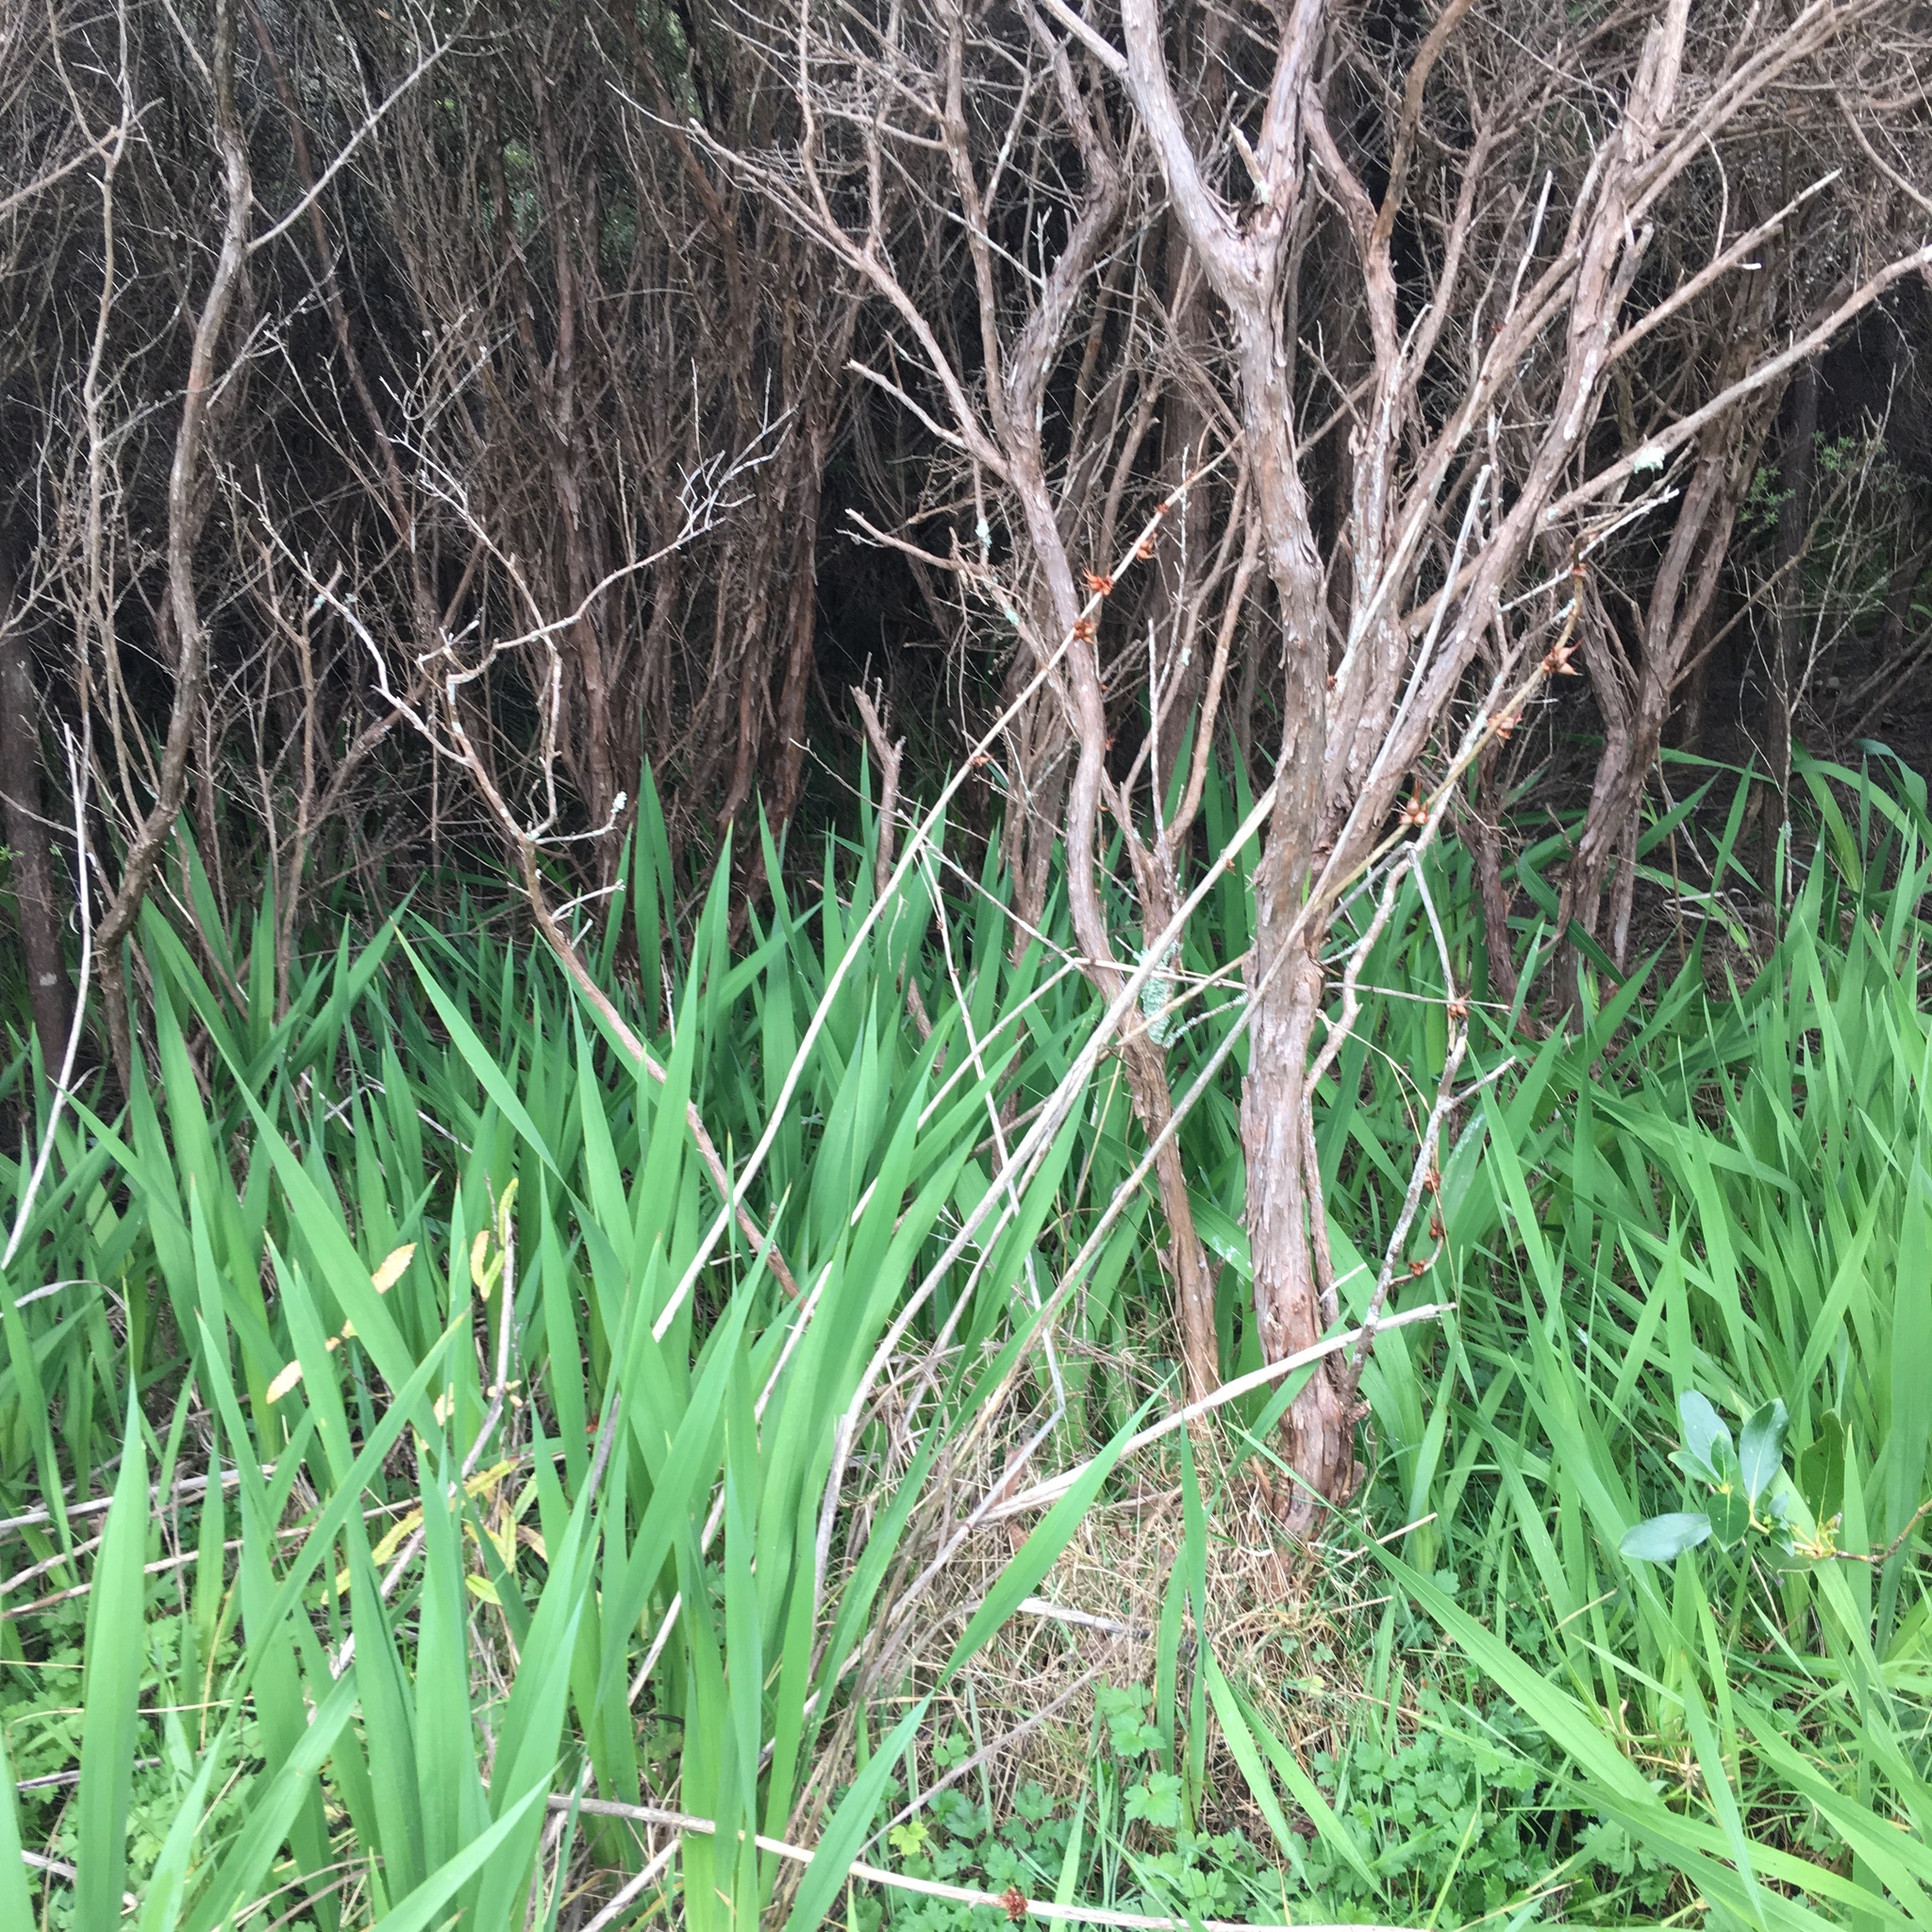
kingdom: Plantae
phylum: Tracheophyta
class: Magnoliopsida
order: Myrtales
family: Myrtaceae
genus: Leptospermum
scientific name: Leptospermum scoparium
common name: Broom tea-tree
